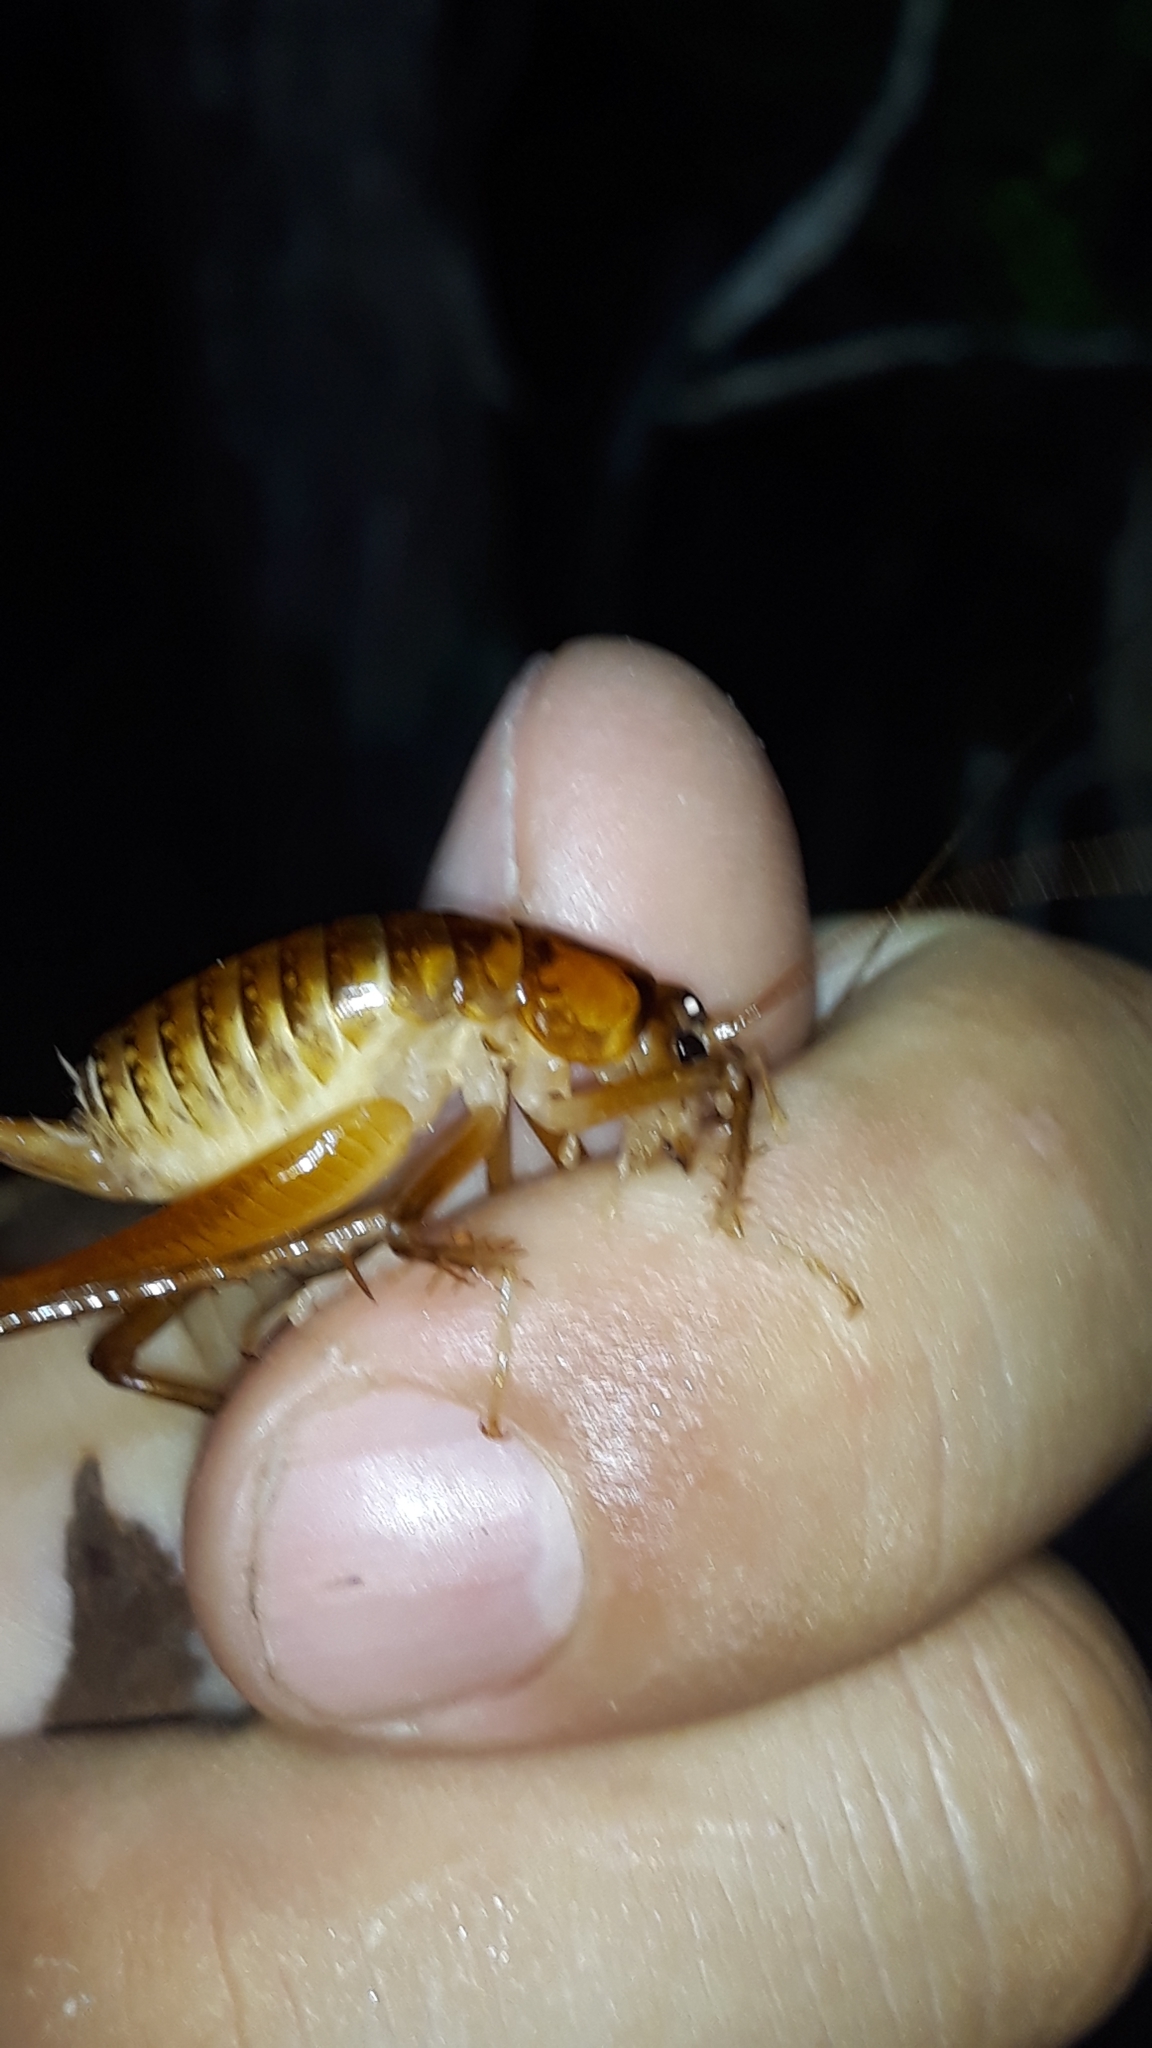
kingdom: Animalia
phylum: Arthropoda
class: Insecta
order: Orthoptera
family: Rhaphidophoridae
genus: Talitropsis
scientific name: Talitropsis sedilloti
